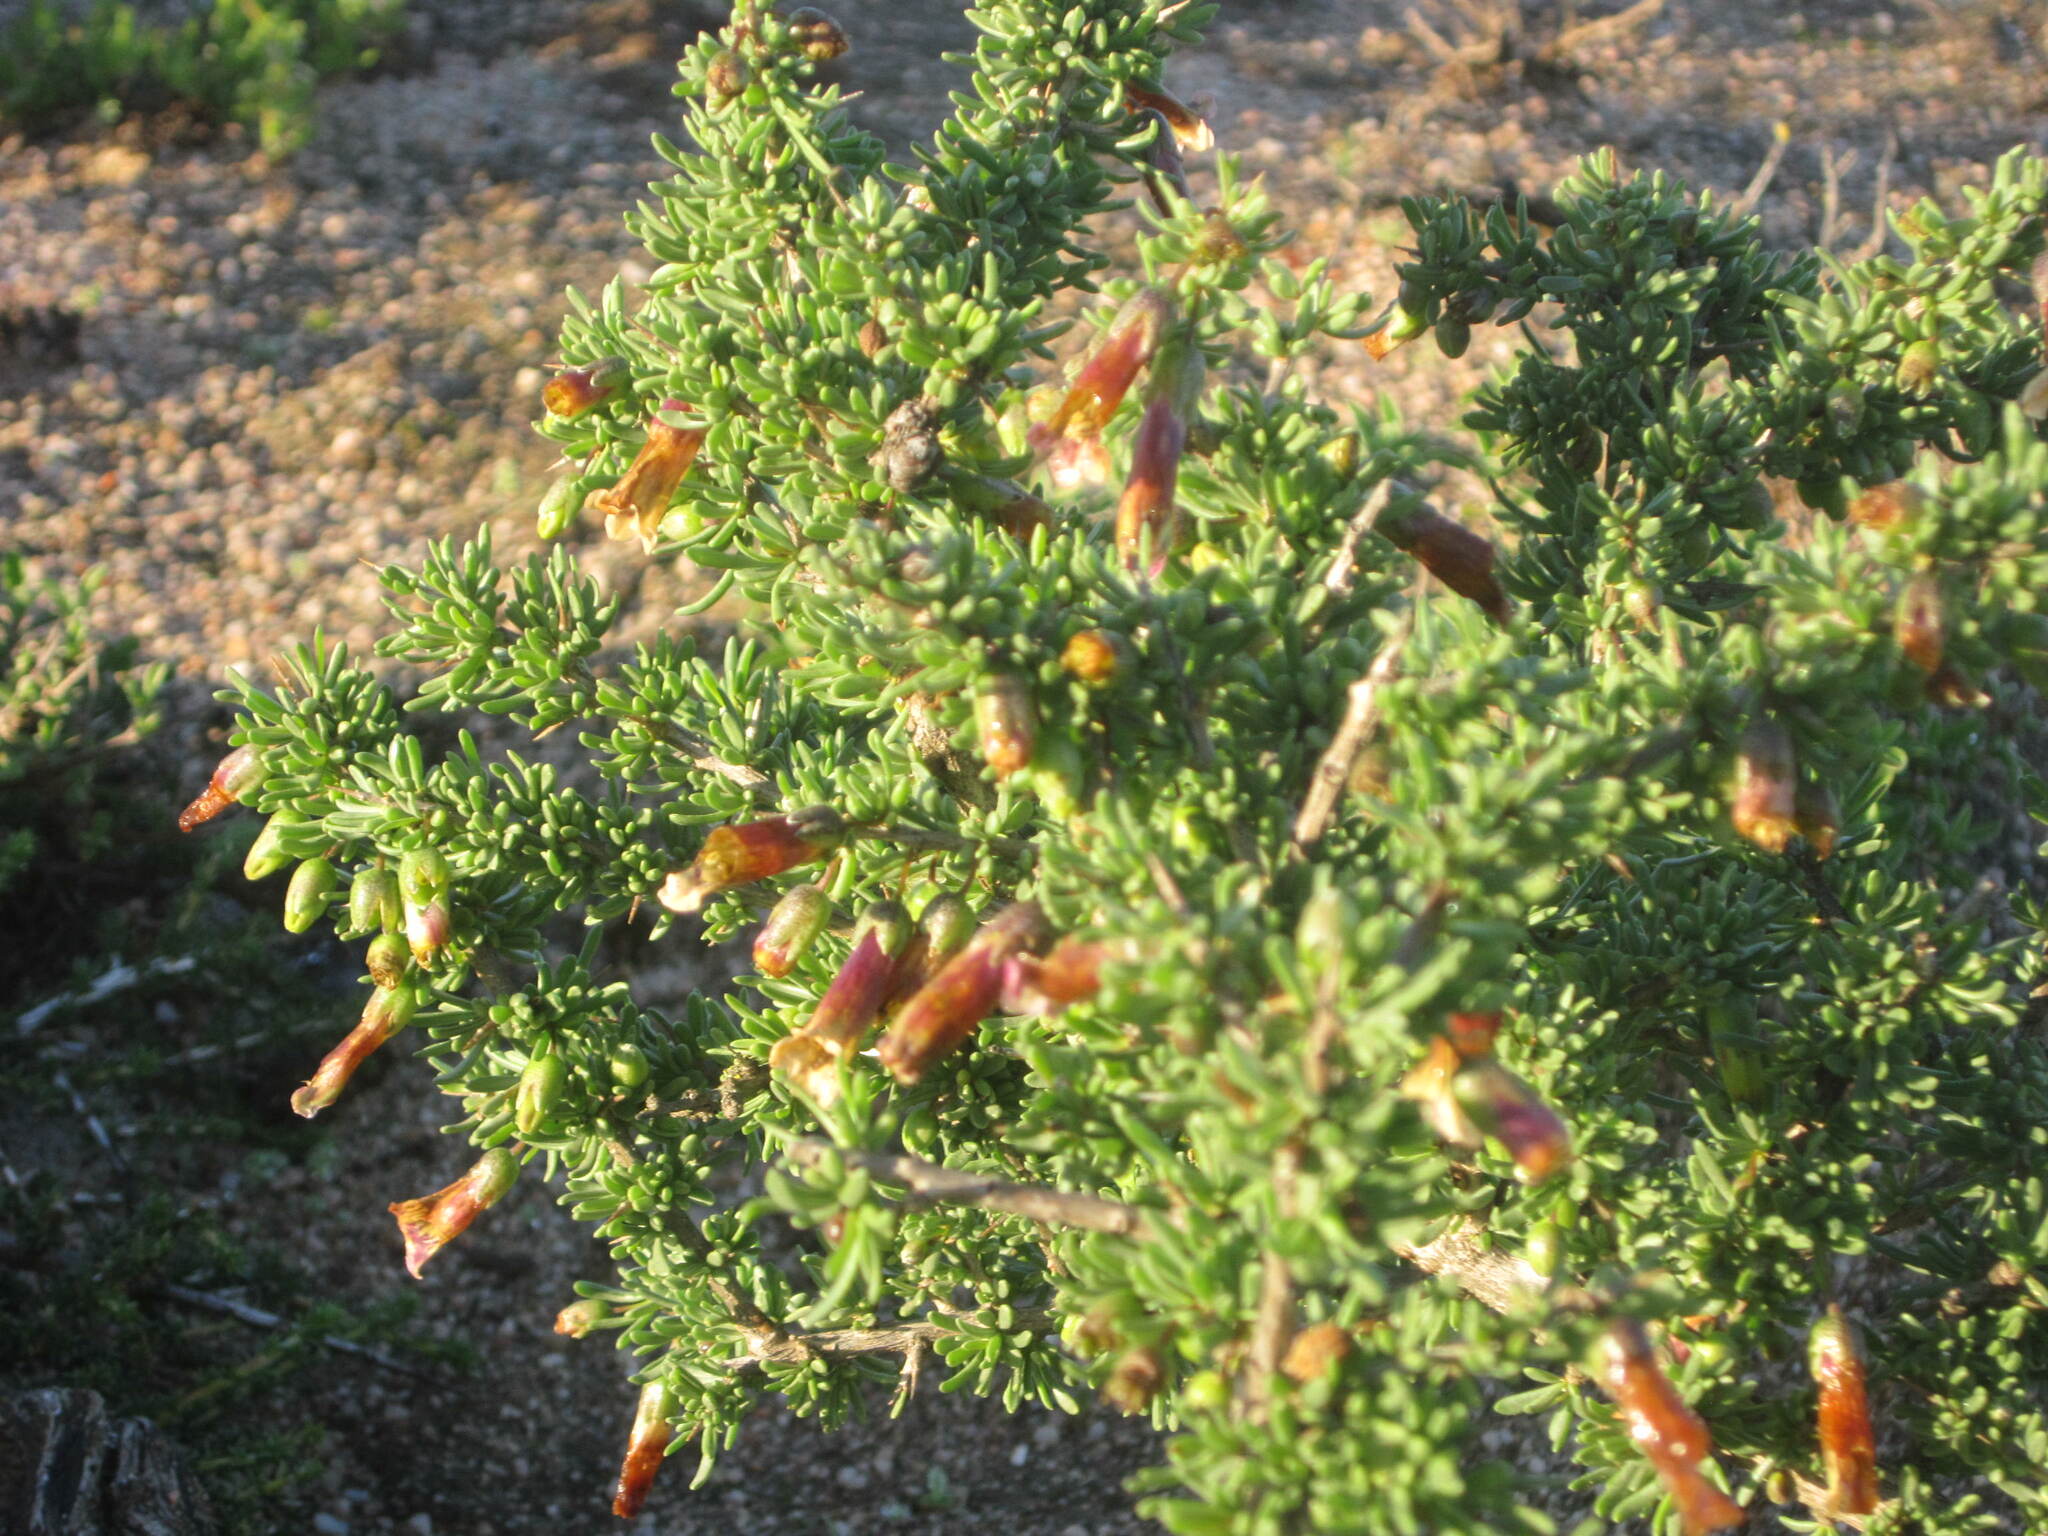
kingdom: Plantae
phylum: Tracheophyta
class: Magnoliopsida
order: Solanales
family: Solanaceae
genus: Lycium
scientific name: Lycium afrum
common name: Kaffir boxthorn
